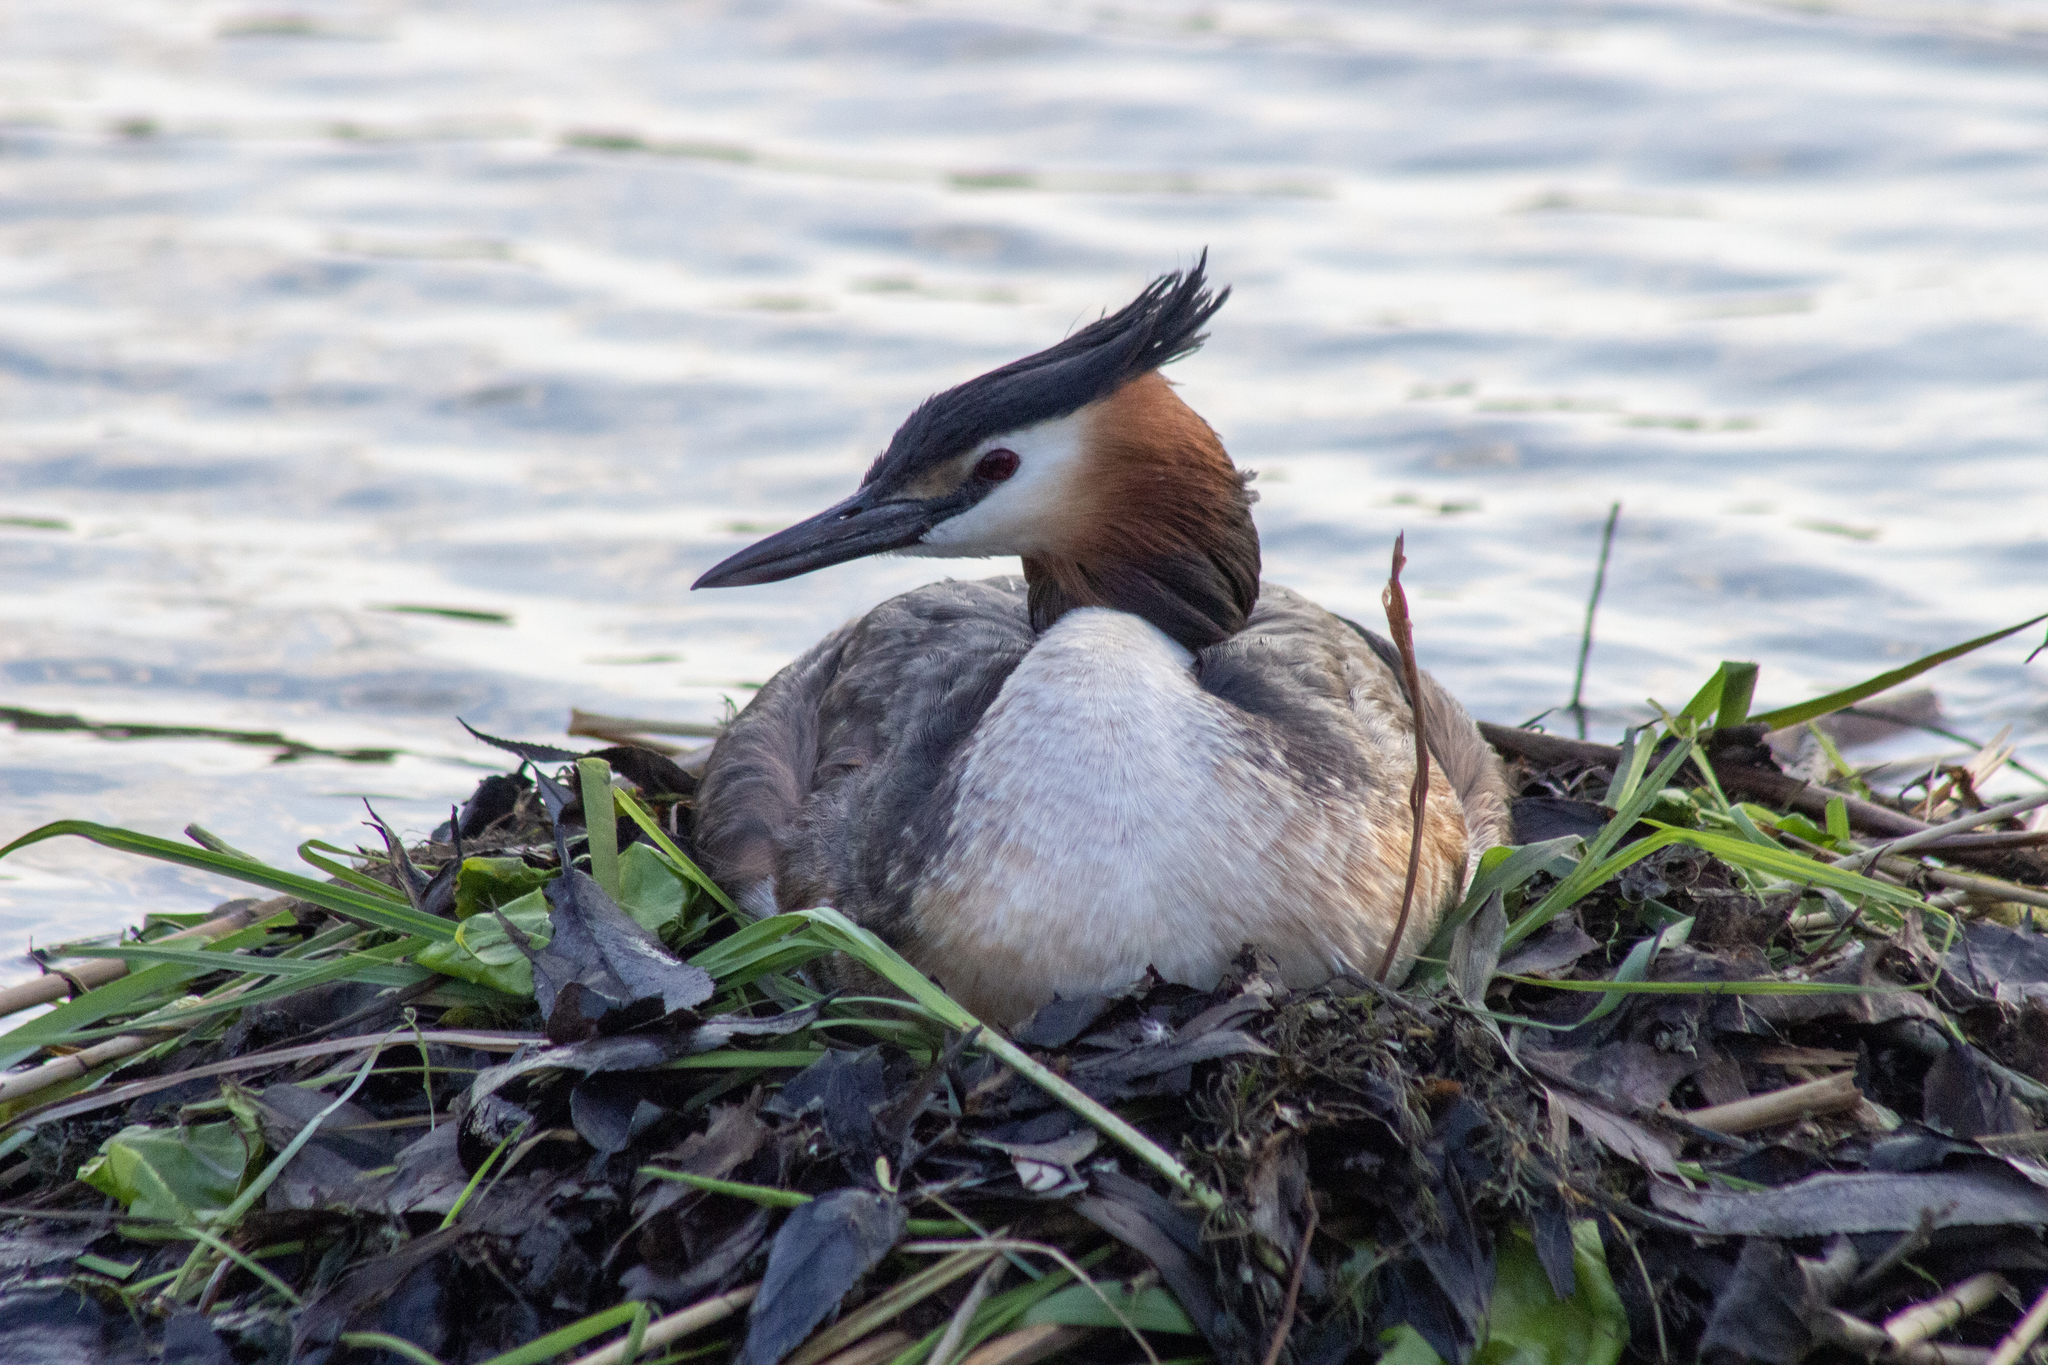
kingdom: Animalia
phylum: Chordata
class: Aves
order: Podicipediformes
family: Podicipedidae
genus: Podiceps
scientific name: Podiceps cristatus
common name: Great crested grebe
